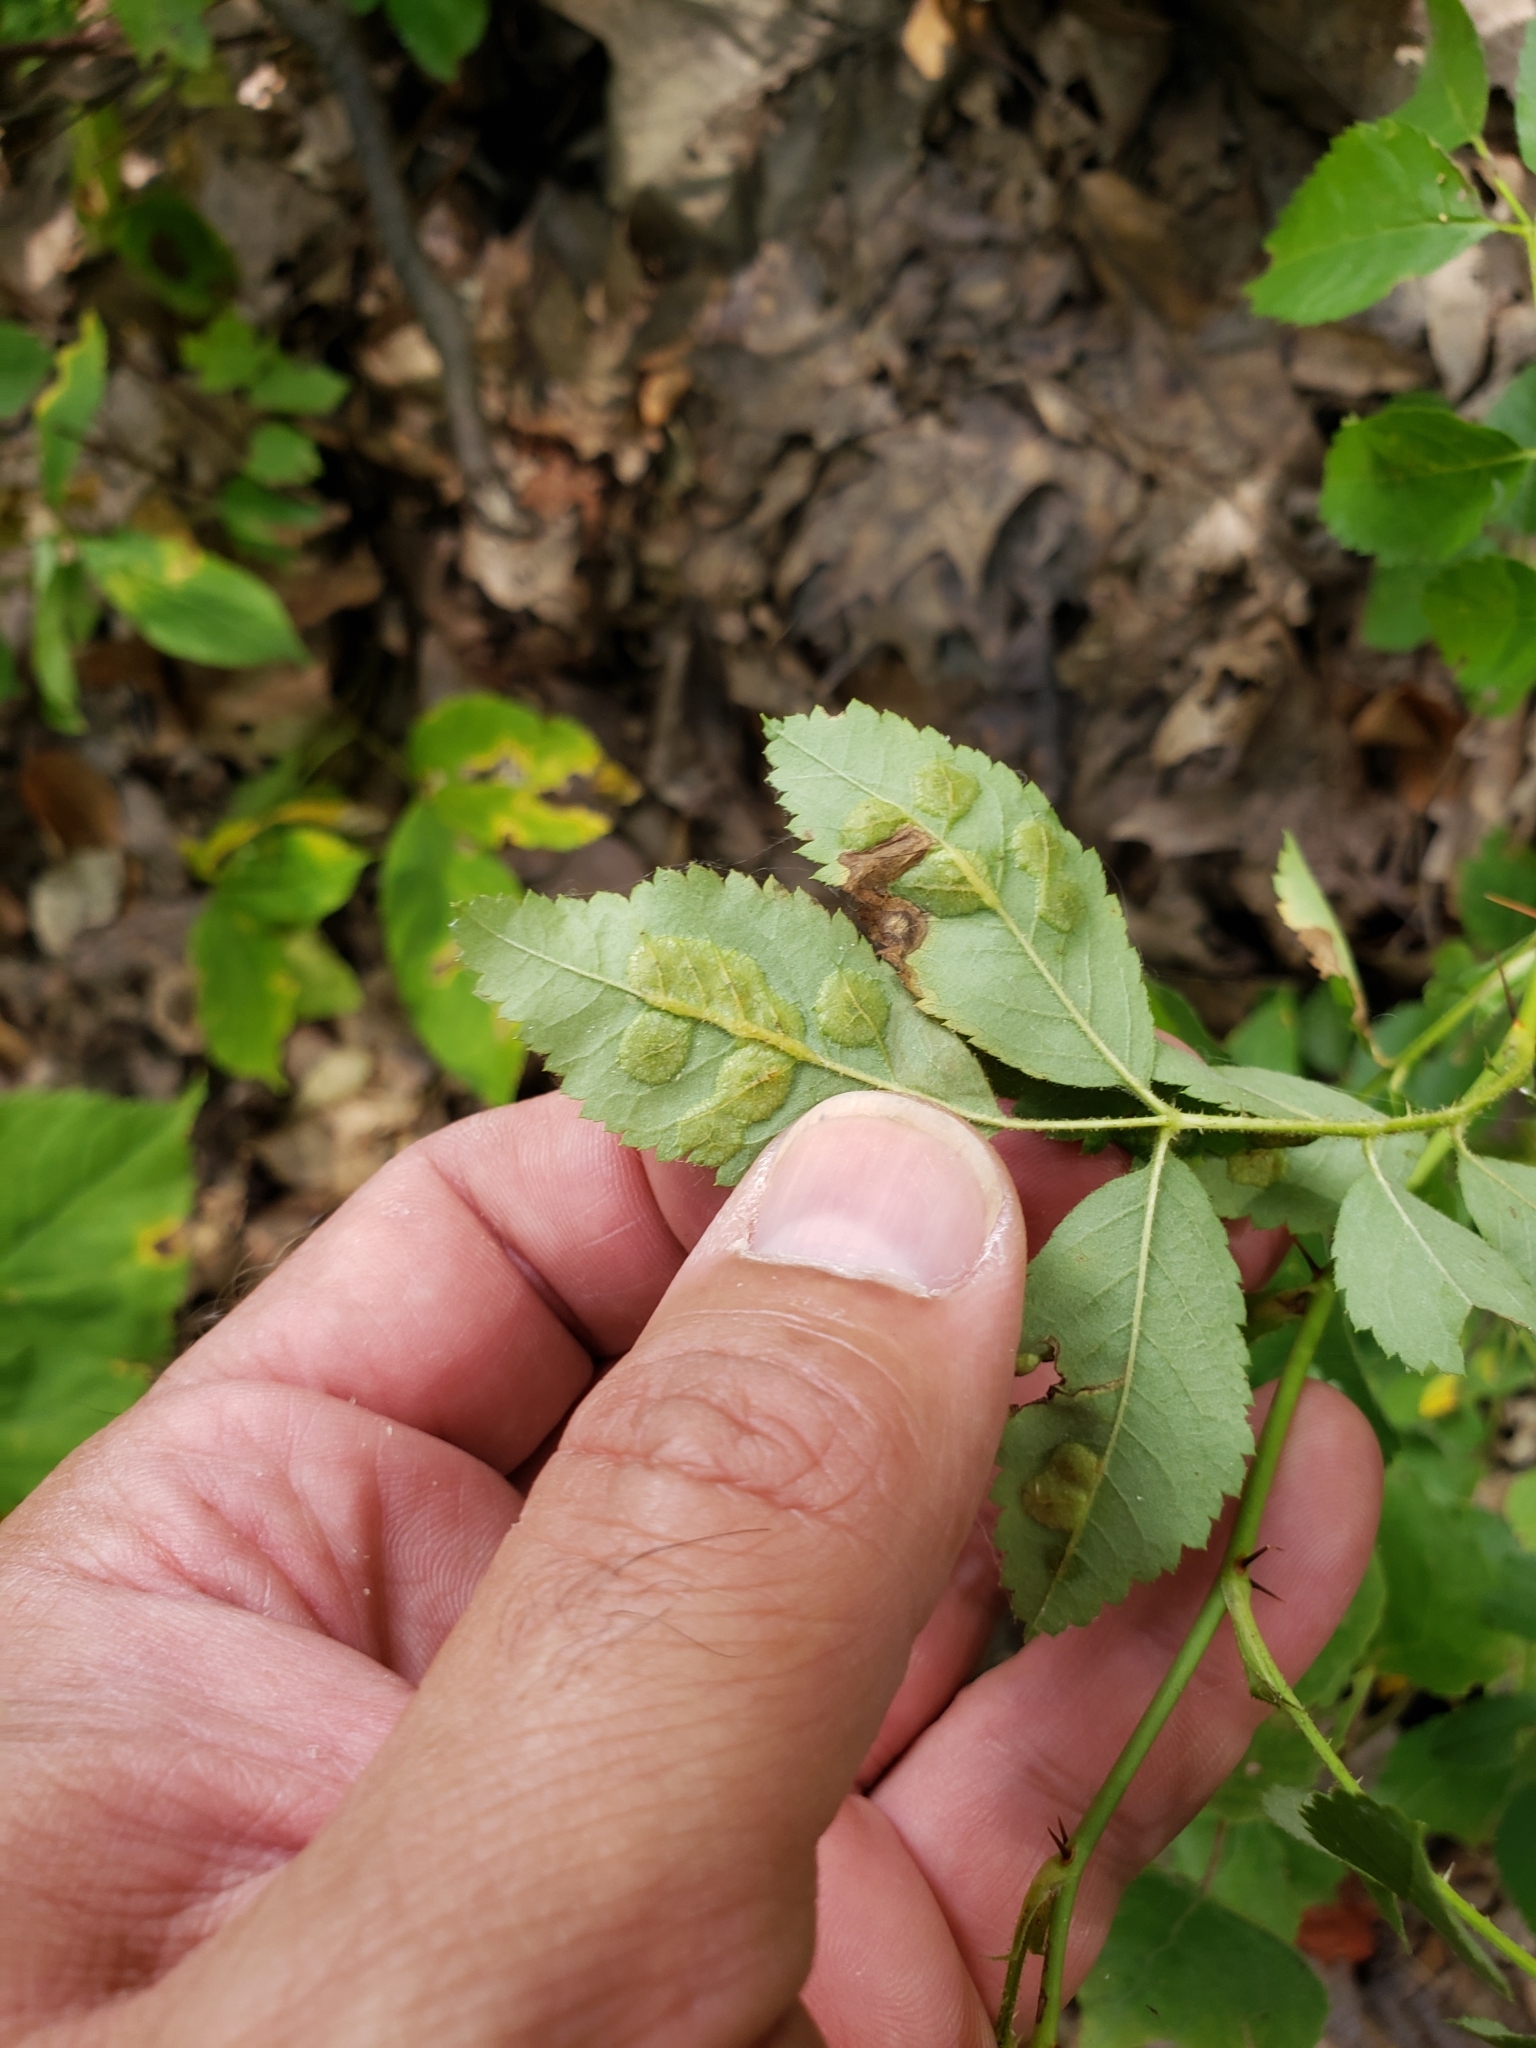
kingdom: Animalia
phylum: Arthropoda
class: Insecta
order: Hymenoptera
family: Cynipidae
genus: Diplolepis
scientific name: Diplolepis rosaefolii
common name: Blister-gall wasp
